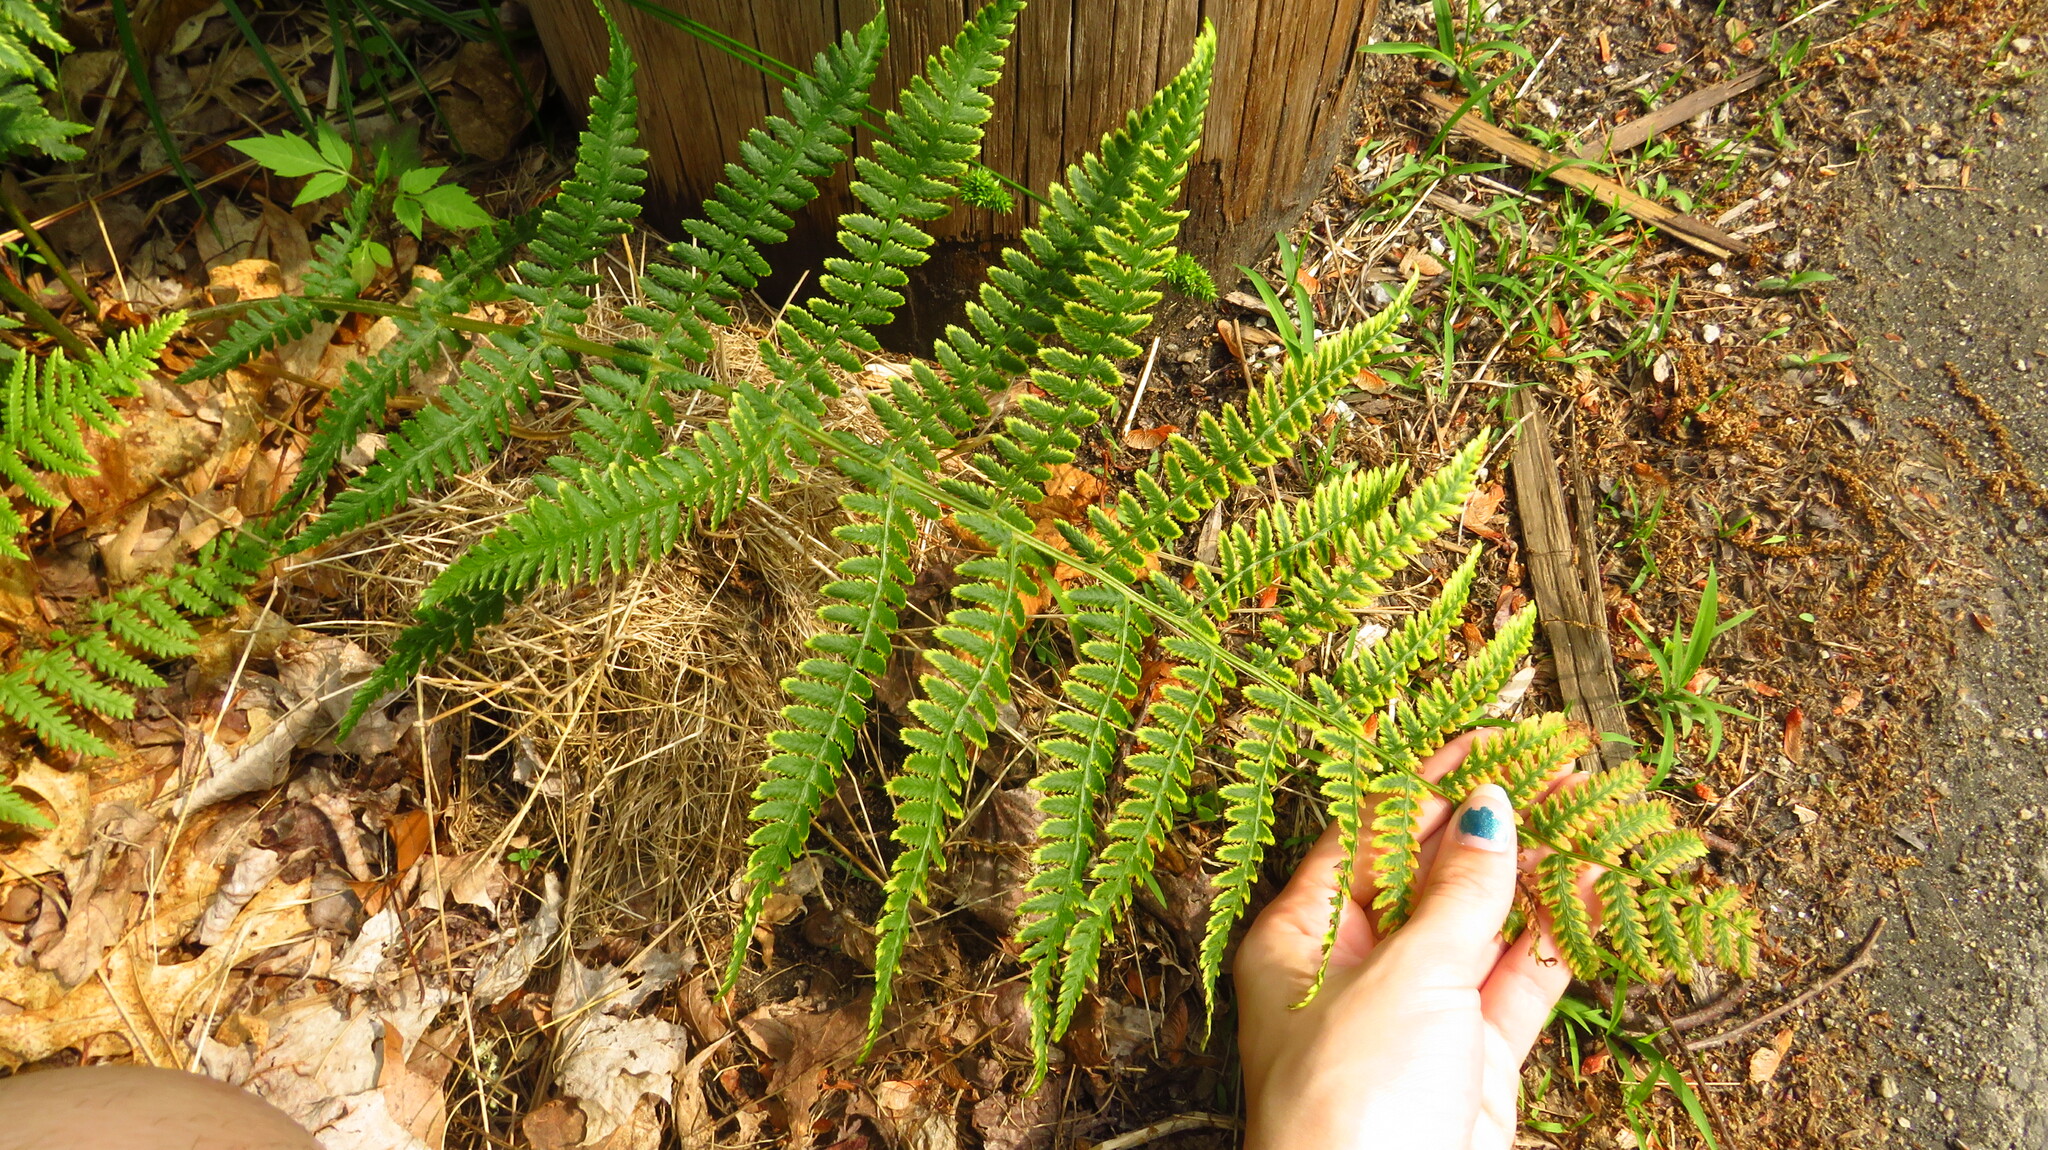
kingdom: Plantae
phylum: Tracheophyta
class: Polypodiopsida
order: Polypodiales
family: Athyriaceae
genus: Athyrium
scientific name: Athyrium angustum
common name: Northern lady fern
